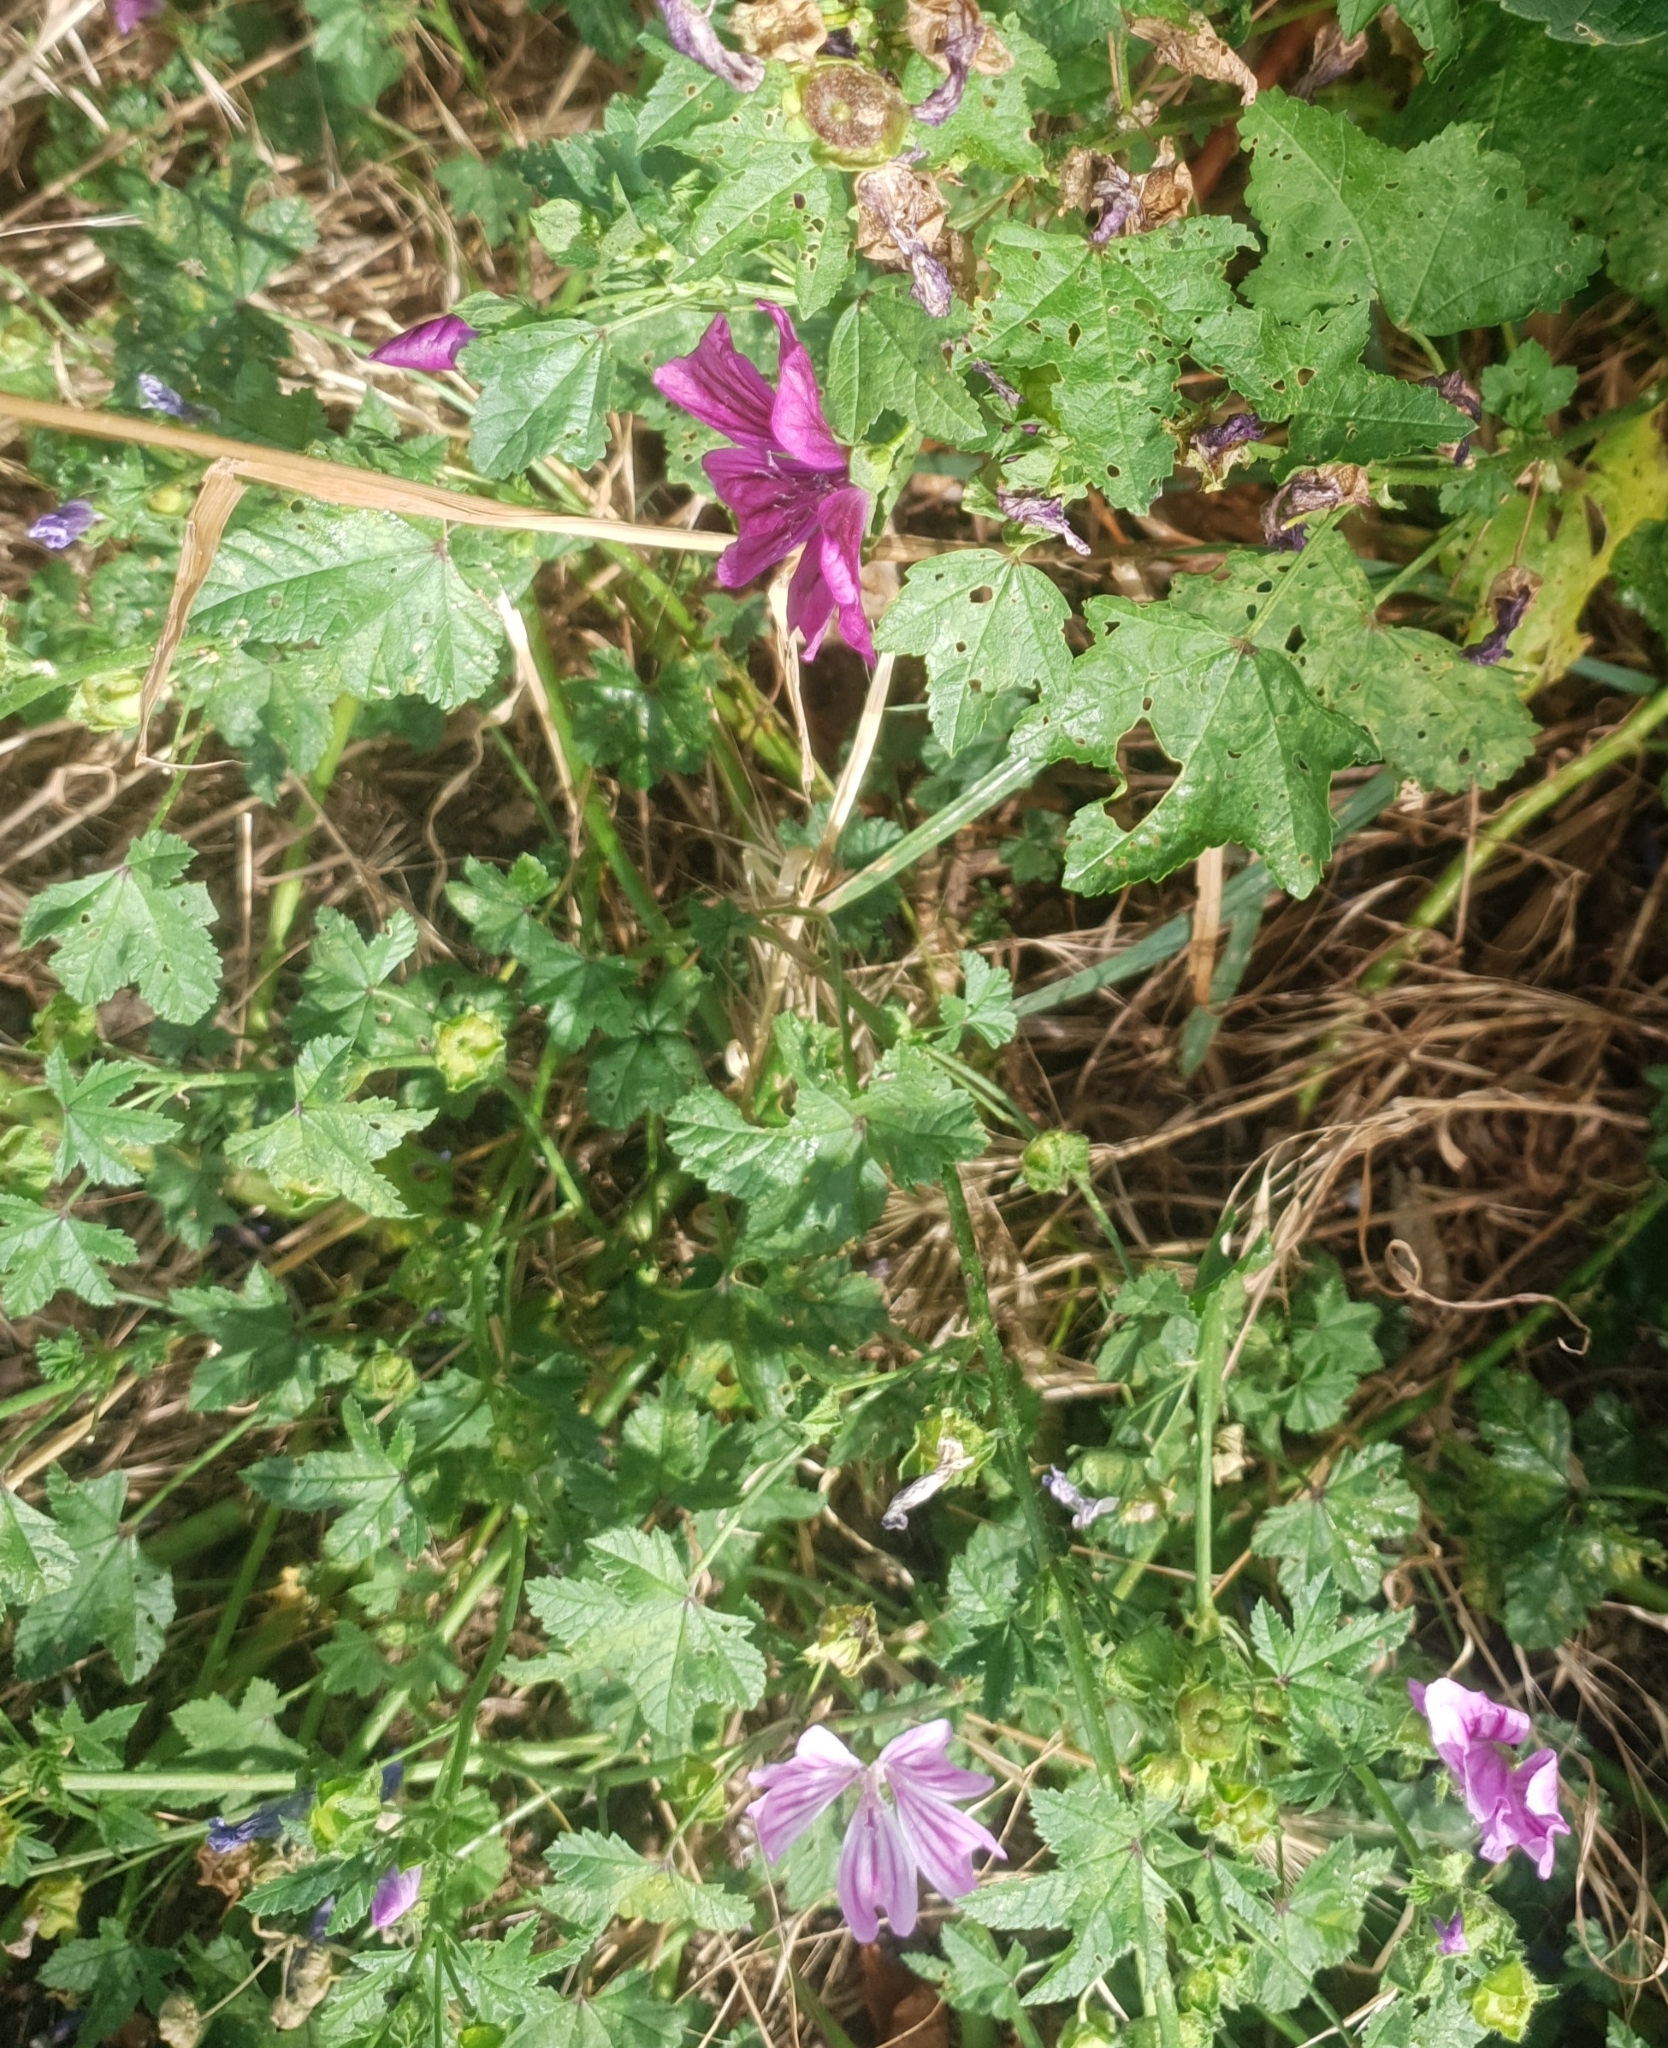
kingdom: Plantae
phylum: Tracheophyta
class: Magnoliopsida
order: Malvales
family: Malvaceae
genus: Malva
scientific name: Malva sylvestris
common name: Common mallow
